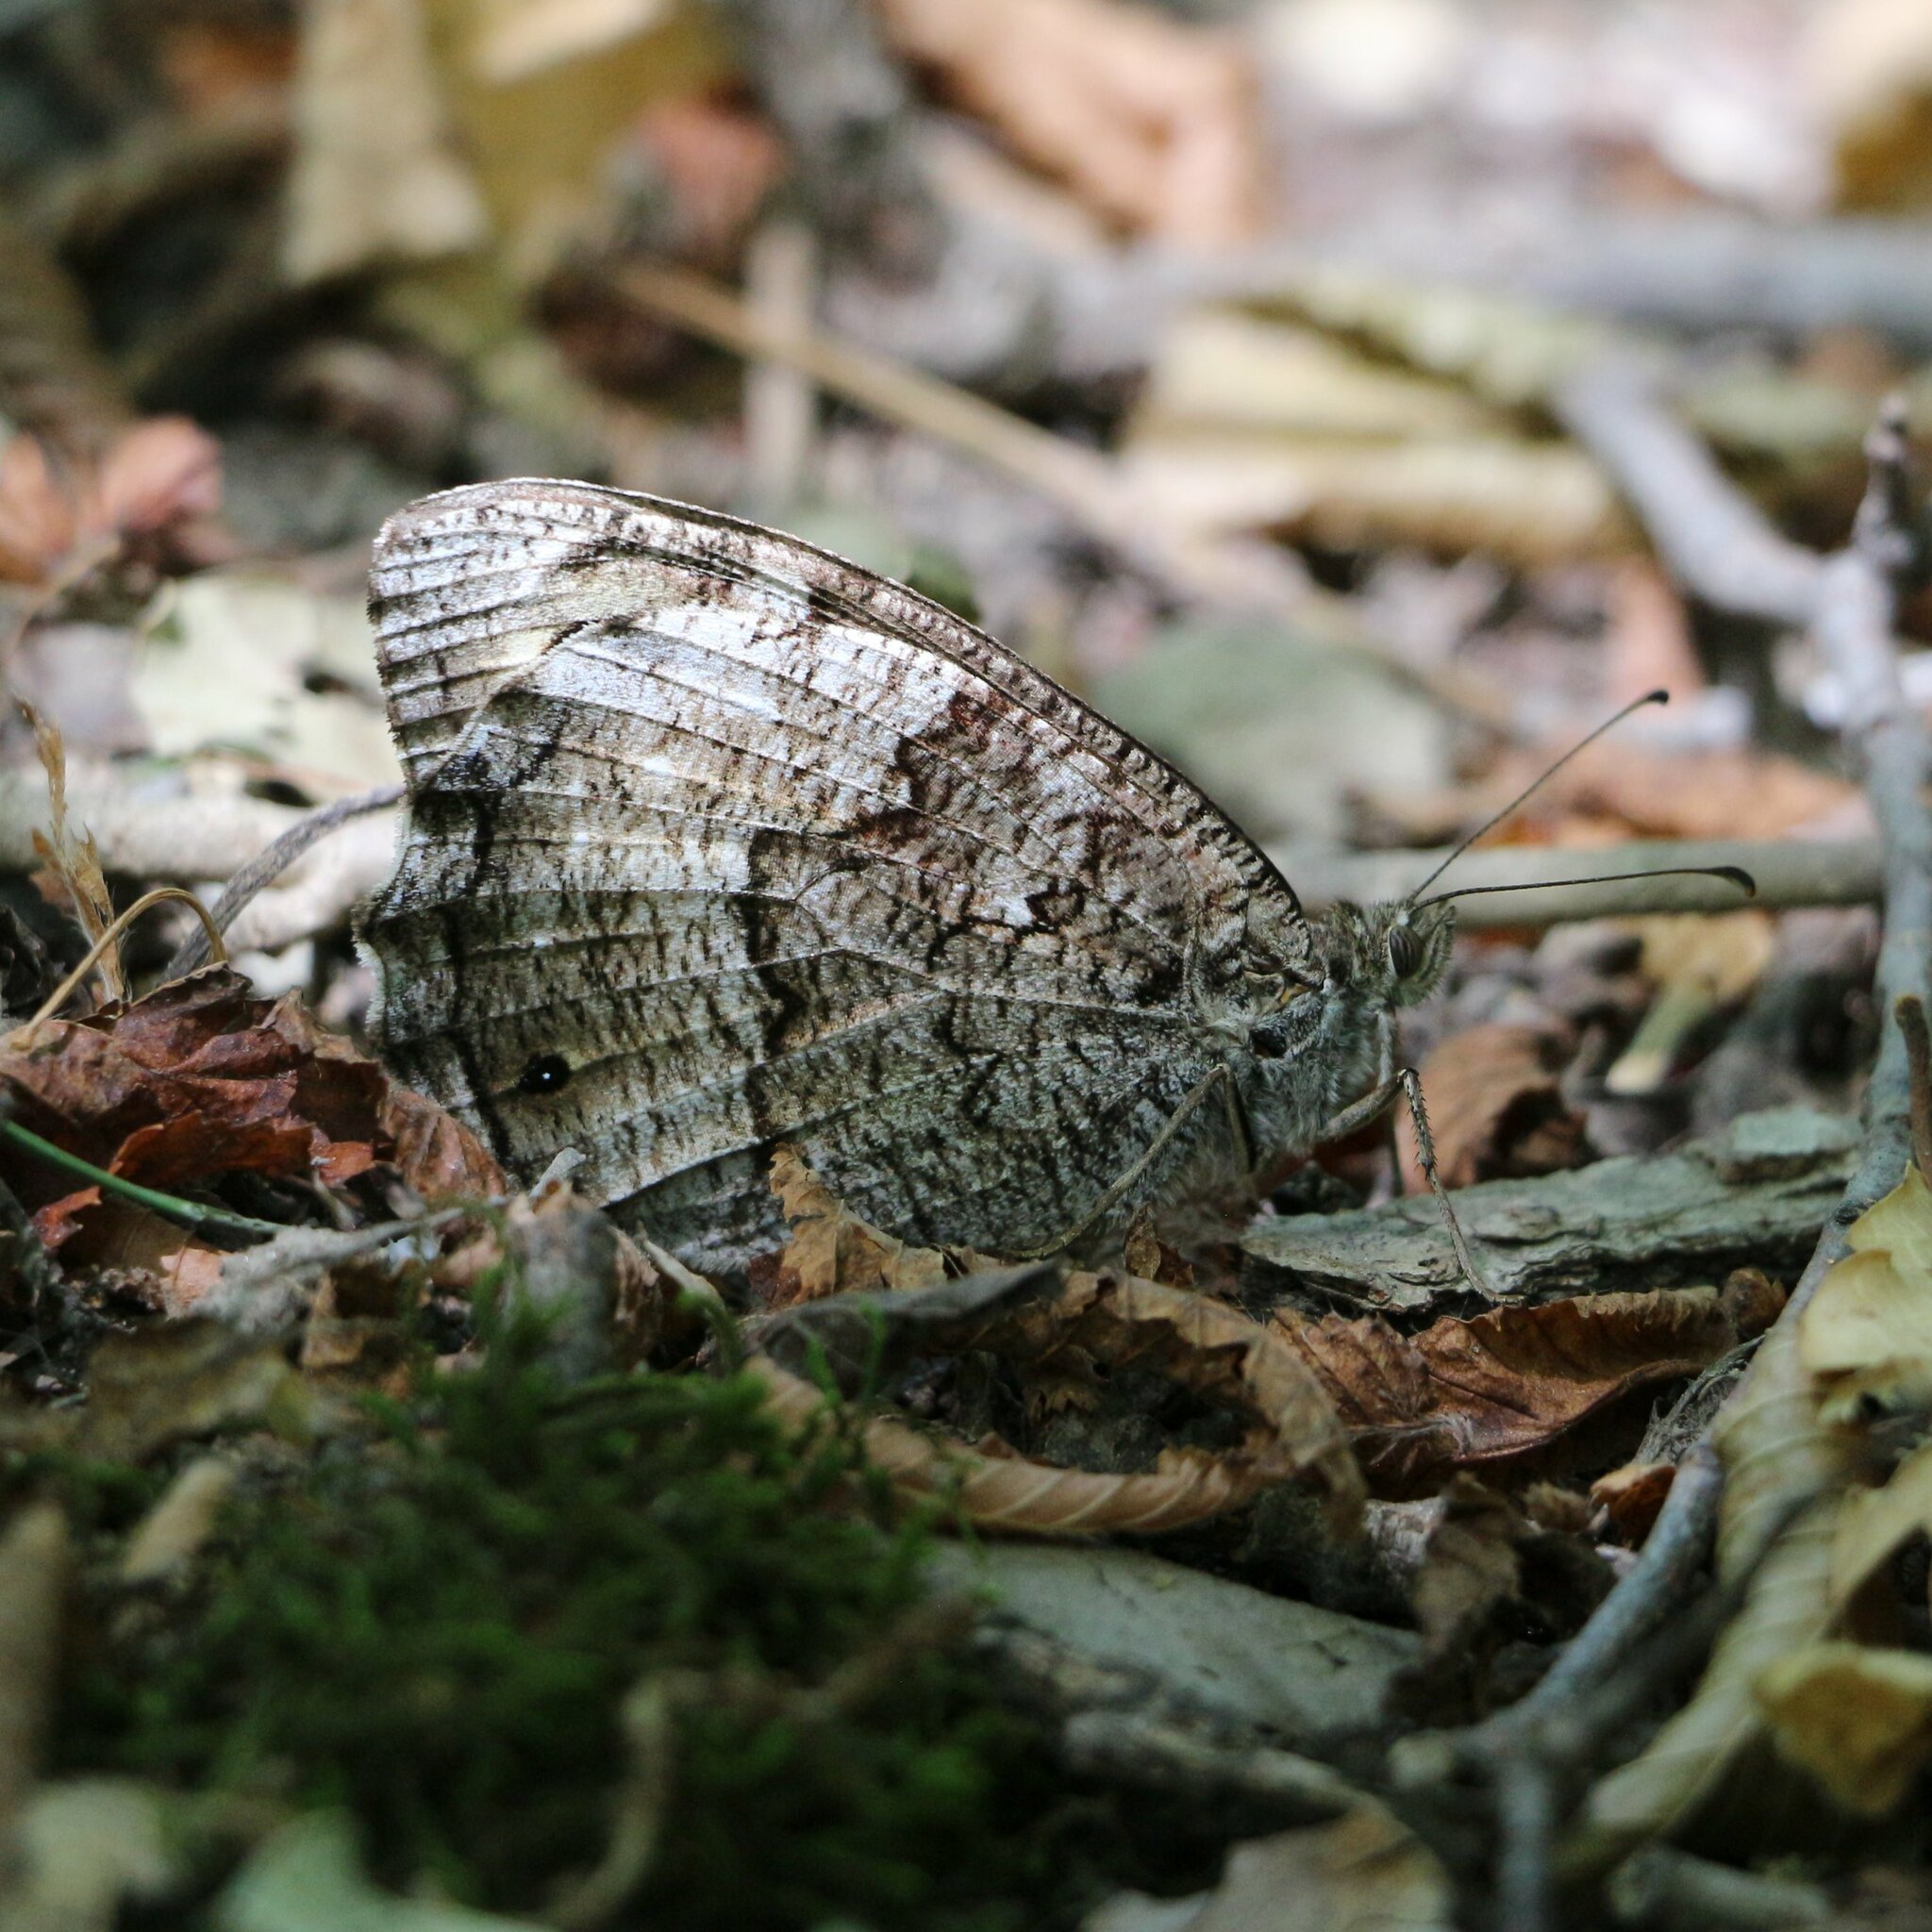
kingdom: Animalia
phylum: Arthropoda
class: Insecta
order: Lepidoptera
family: Nymphalidae
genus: Hipparchia
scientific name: Hipparchia fagi
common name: Woodland grayling
